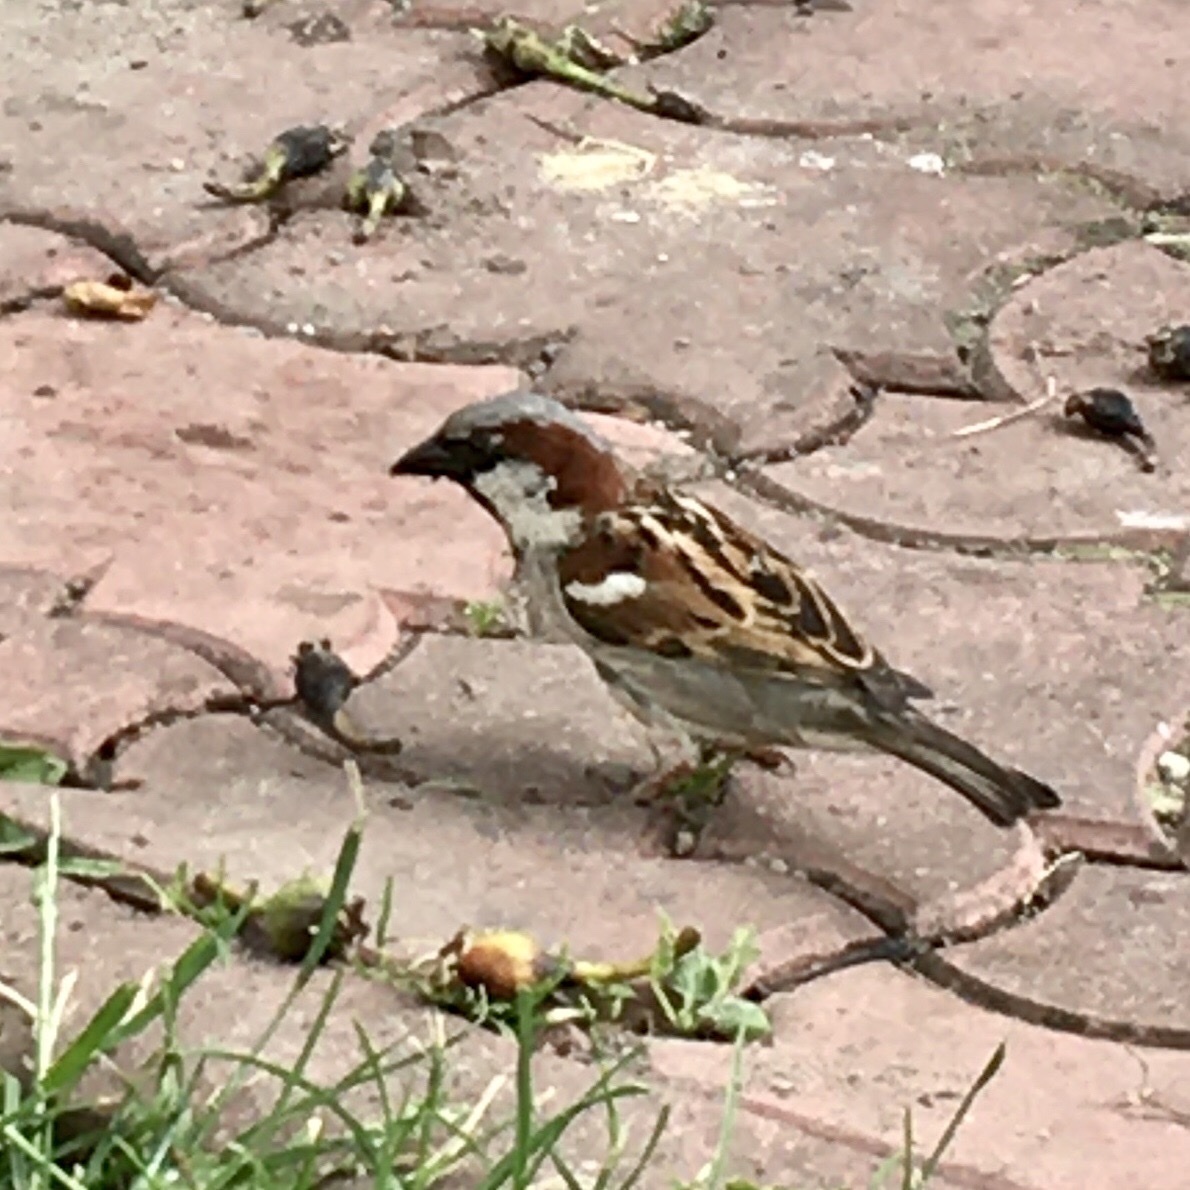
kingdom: Animalia
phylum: Chordata
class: Aves
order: Passeriformes
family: Passeridae
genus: Passer
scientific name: Passer domesticus
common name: House sparrow
